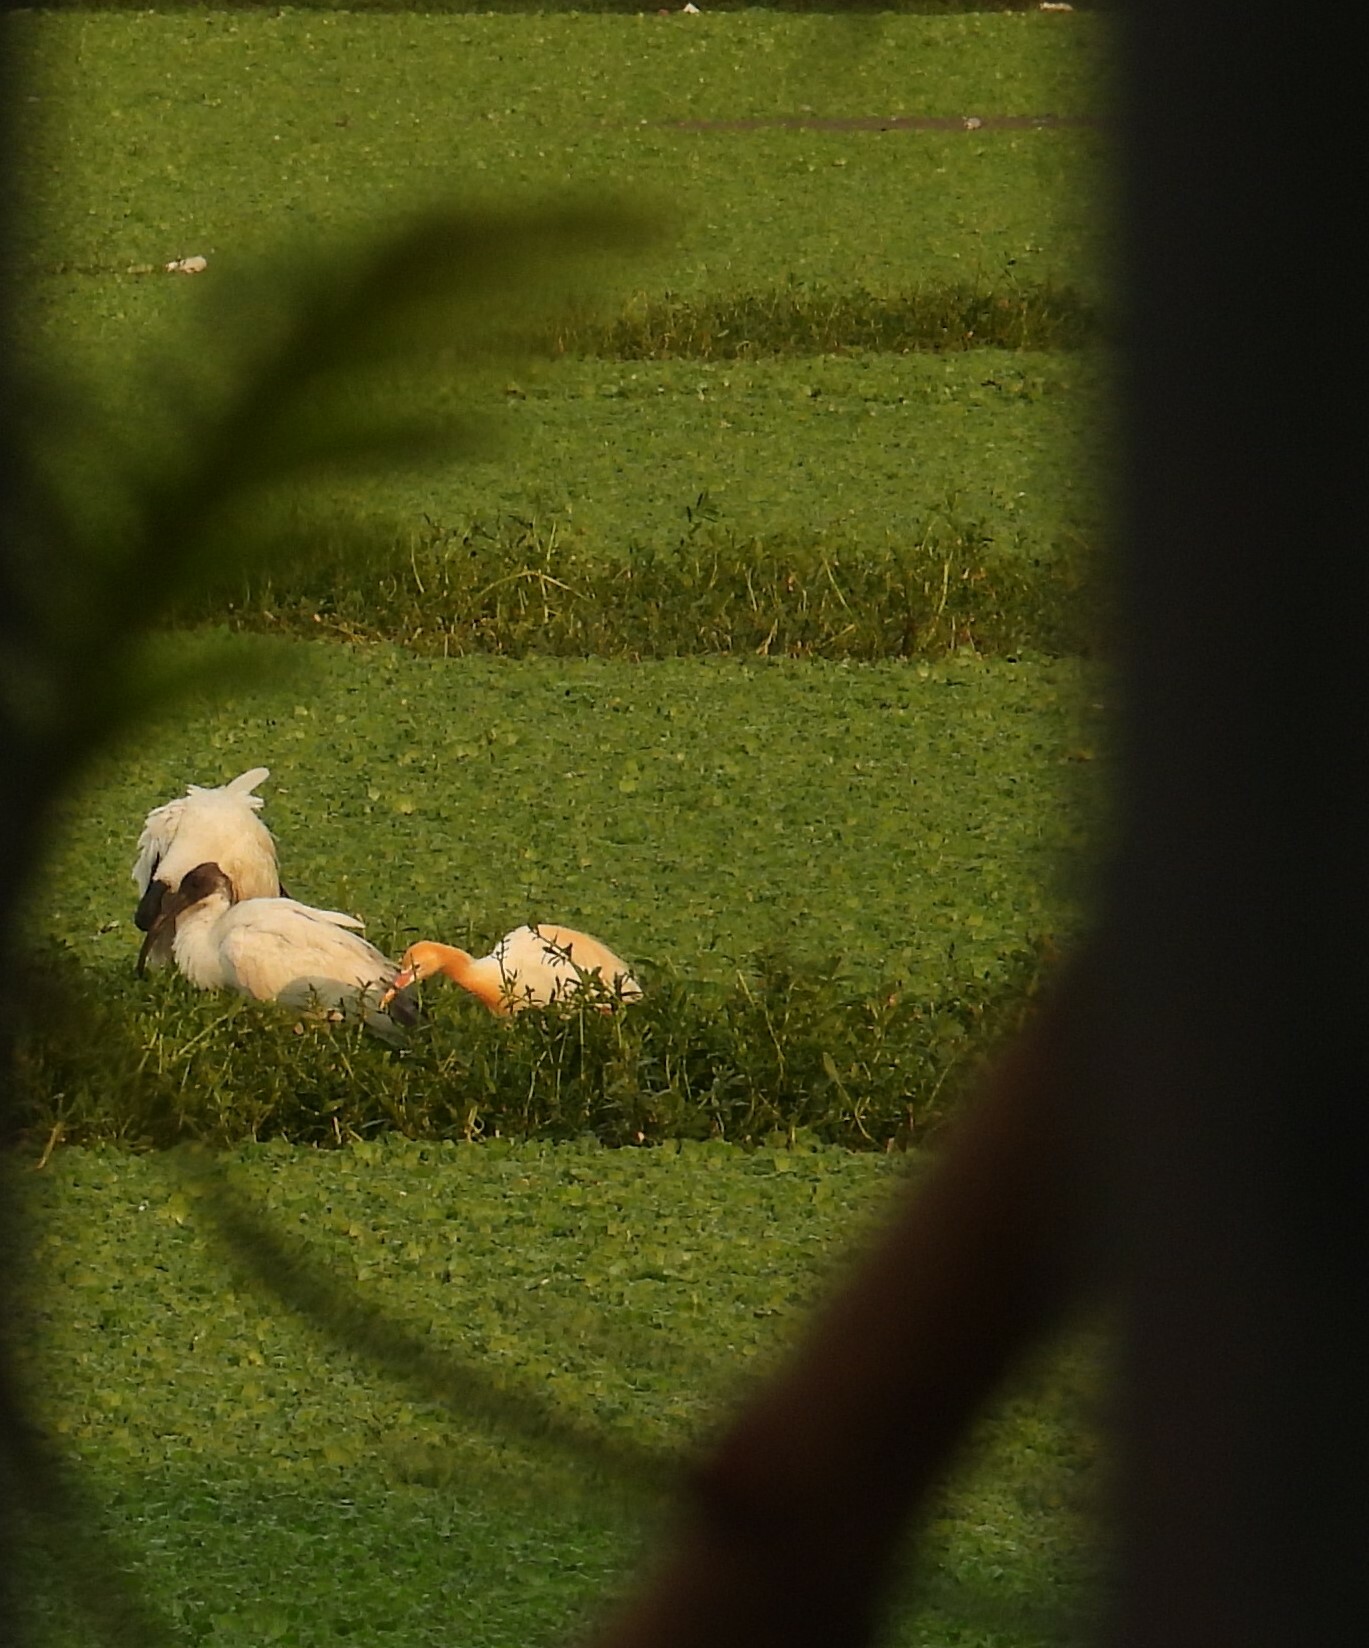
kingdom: Animalia
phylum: Chordata
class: Aves
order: Pelecaniformes
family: Threskiornithidae
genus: Threskiornis
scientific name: Threskiornis melanocephalus
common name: Black-headed ibis
